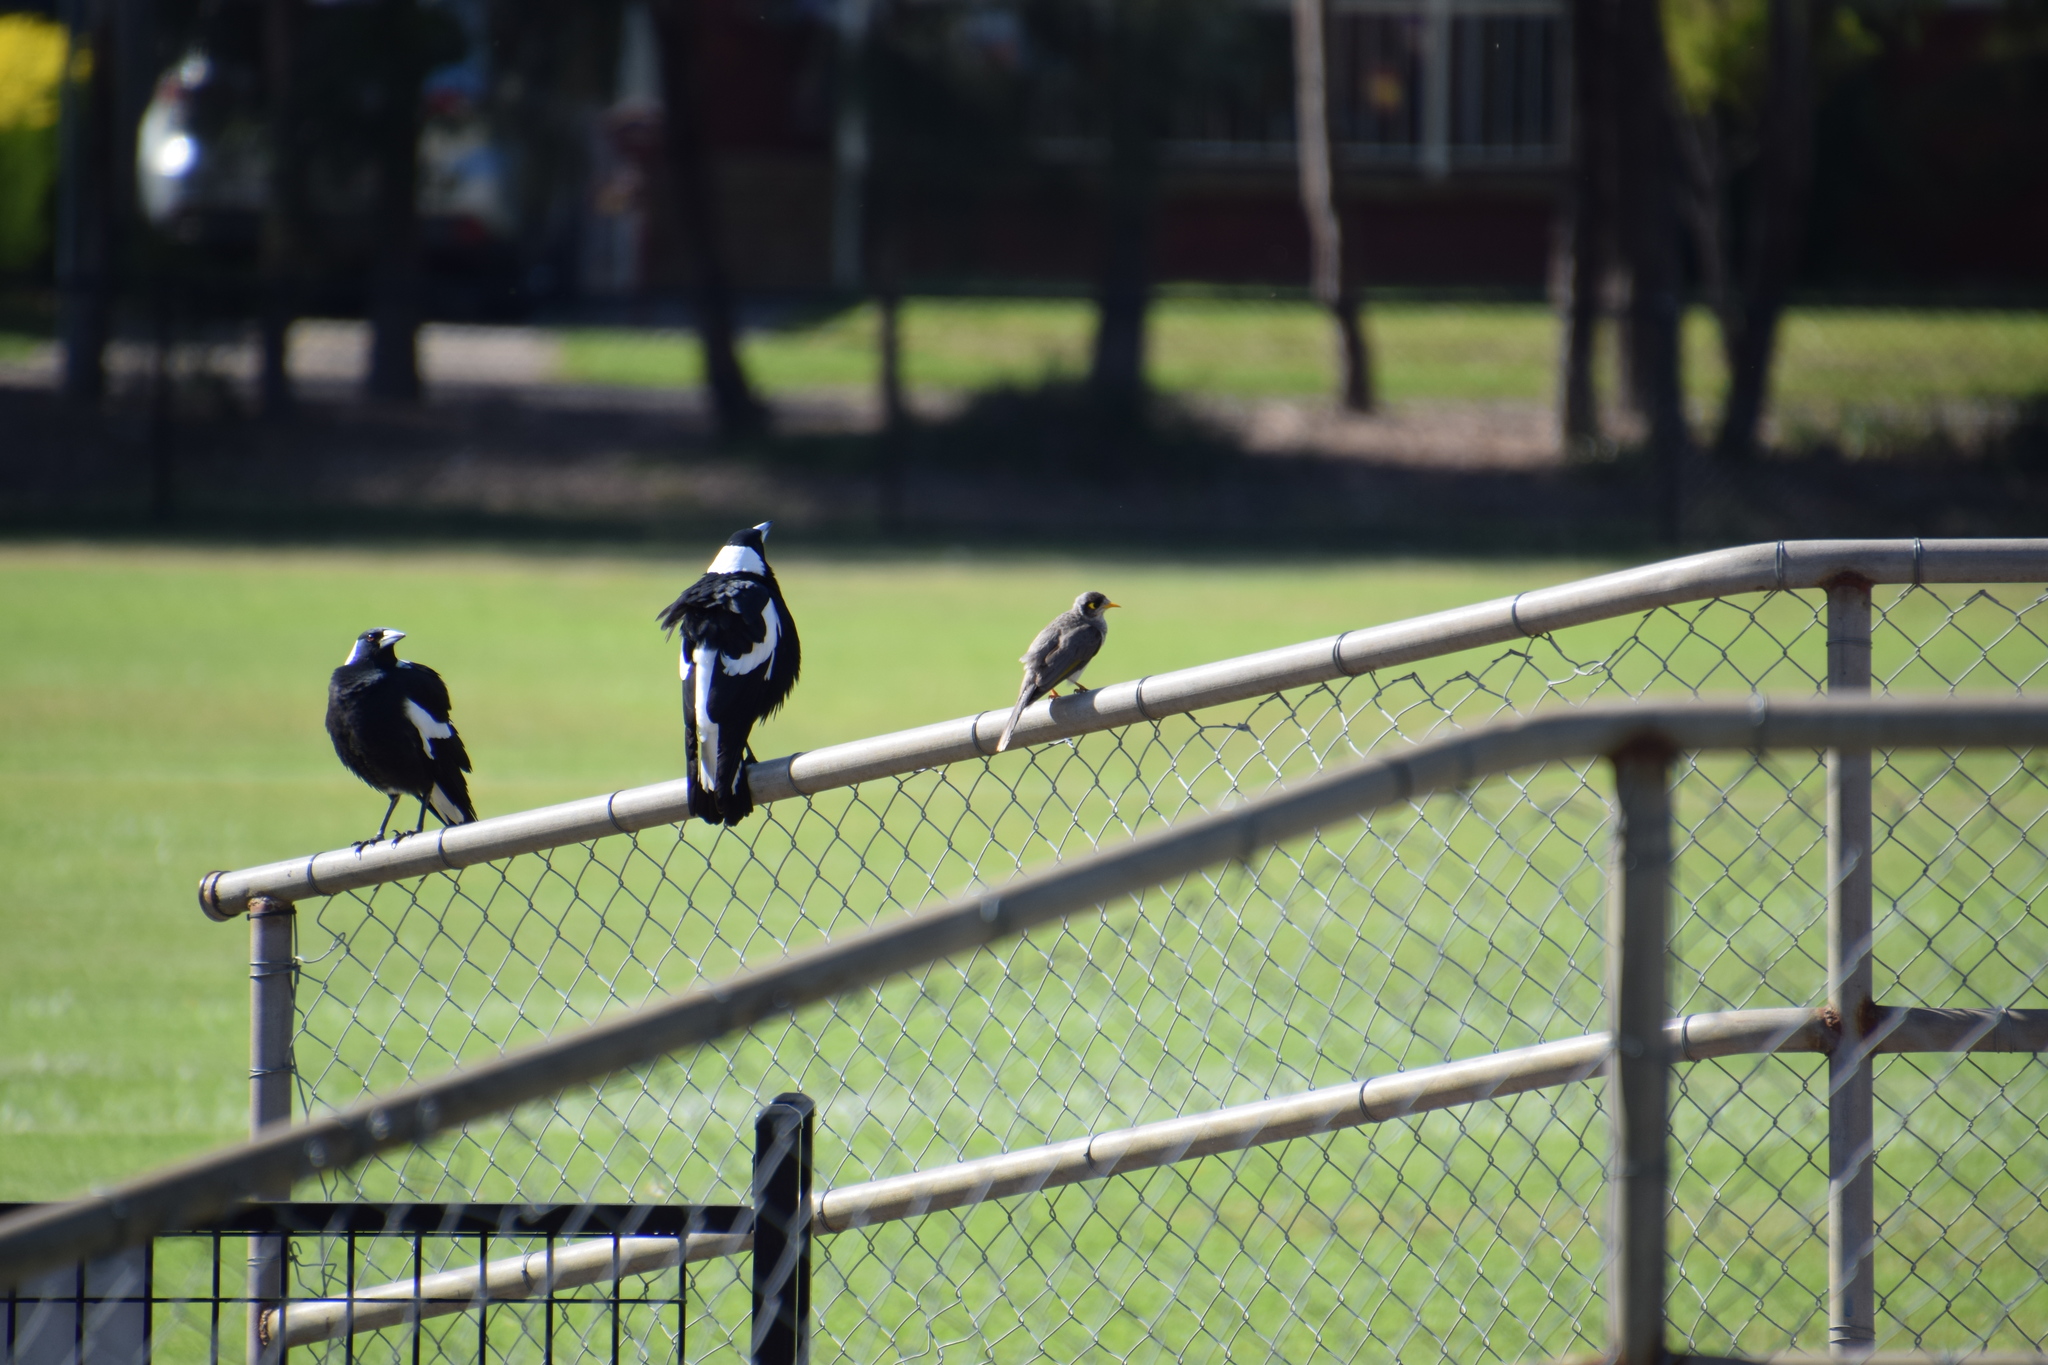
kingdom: Animalia
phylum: Chordata
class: Aves
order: Passeriformes
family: Meliphagidae
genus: Manorina
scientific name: Manorina melanocephala
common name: Noisy miner
